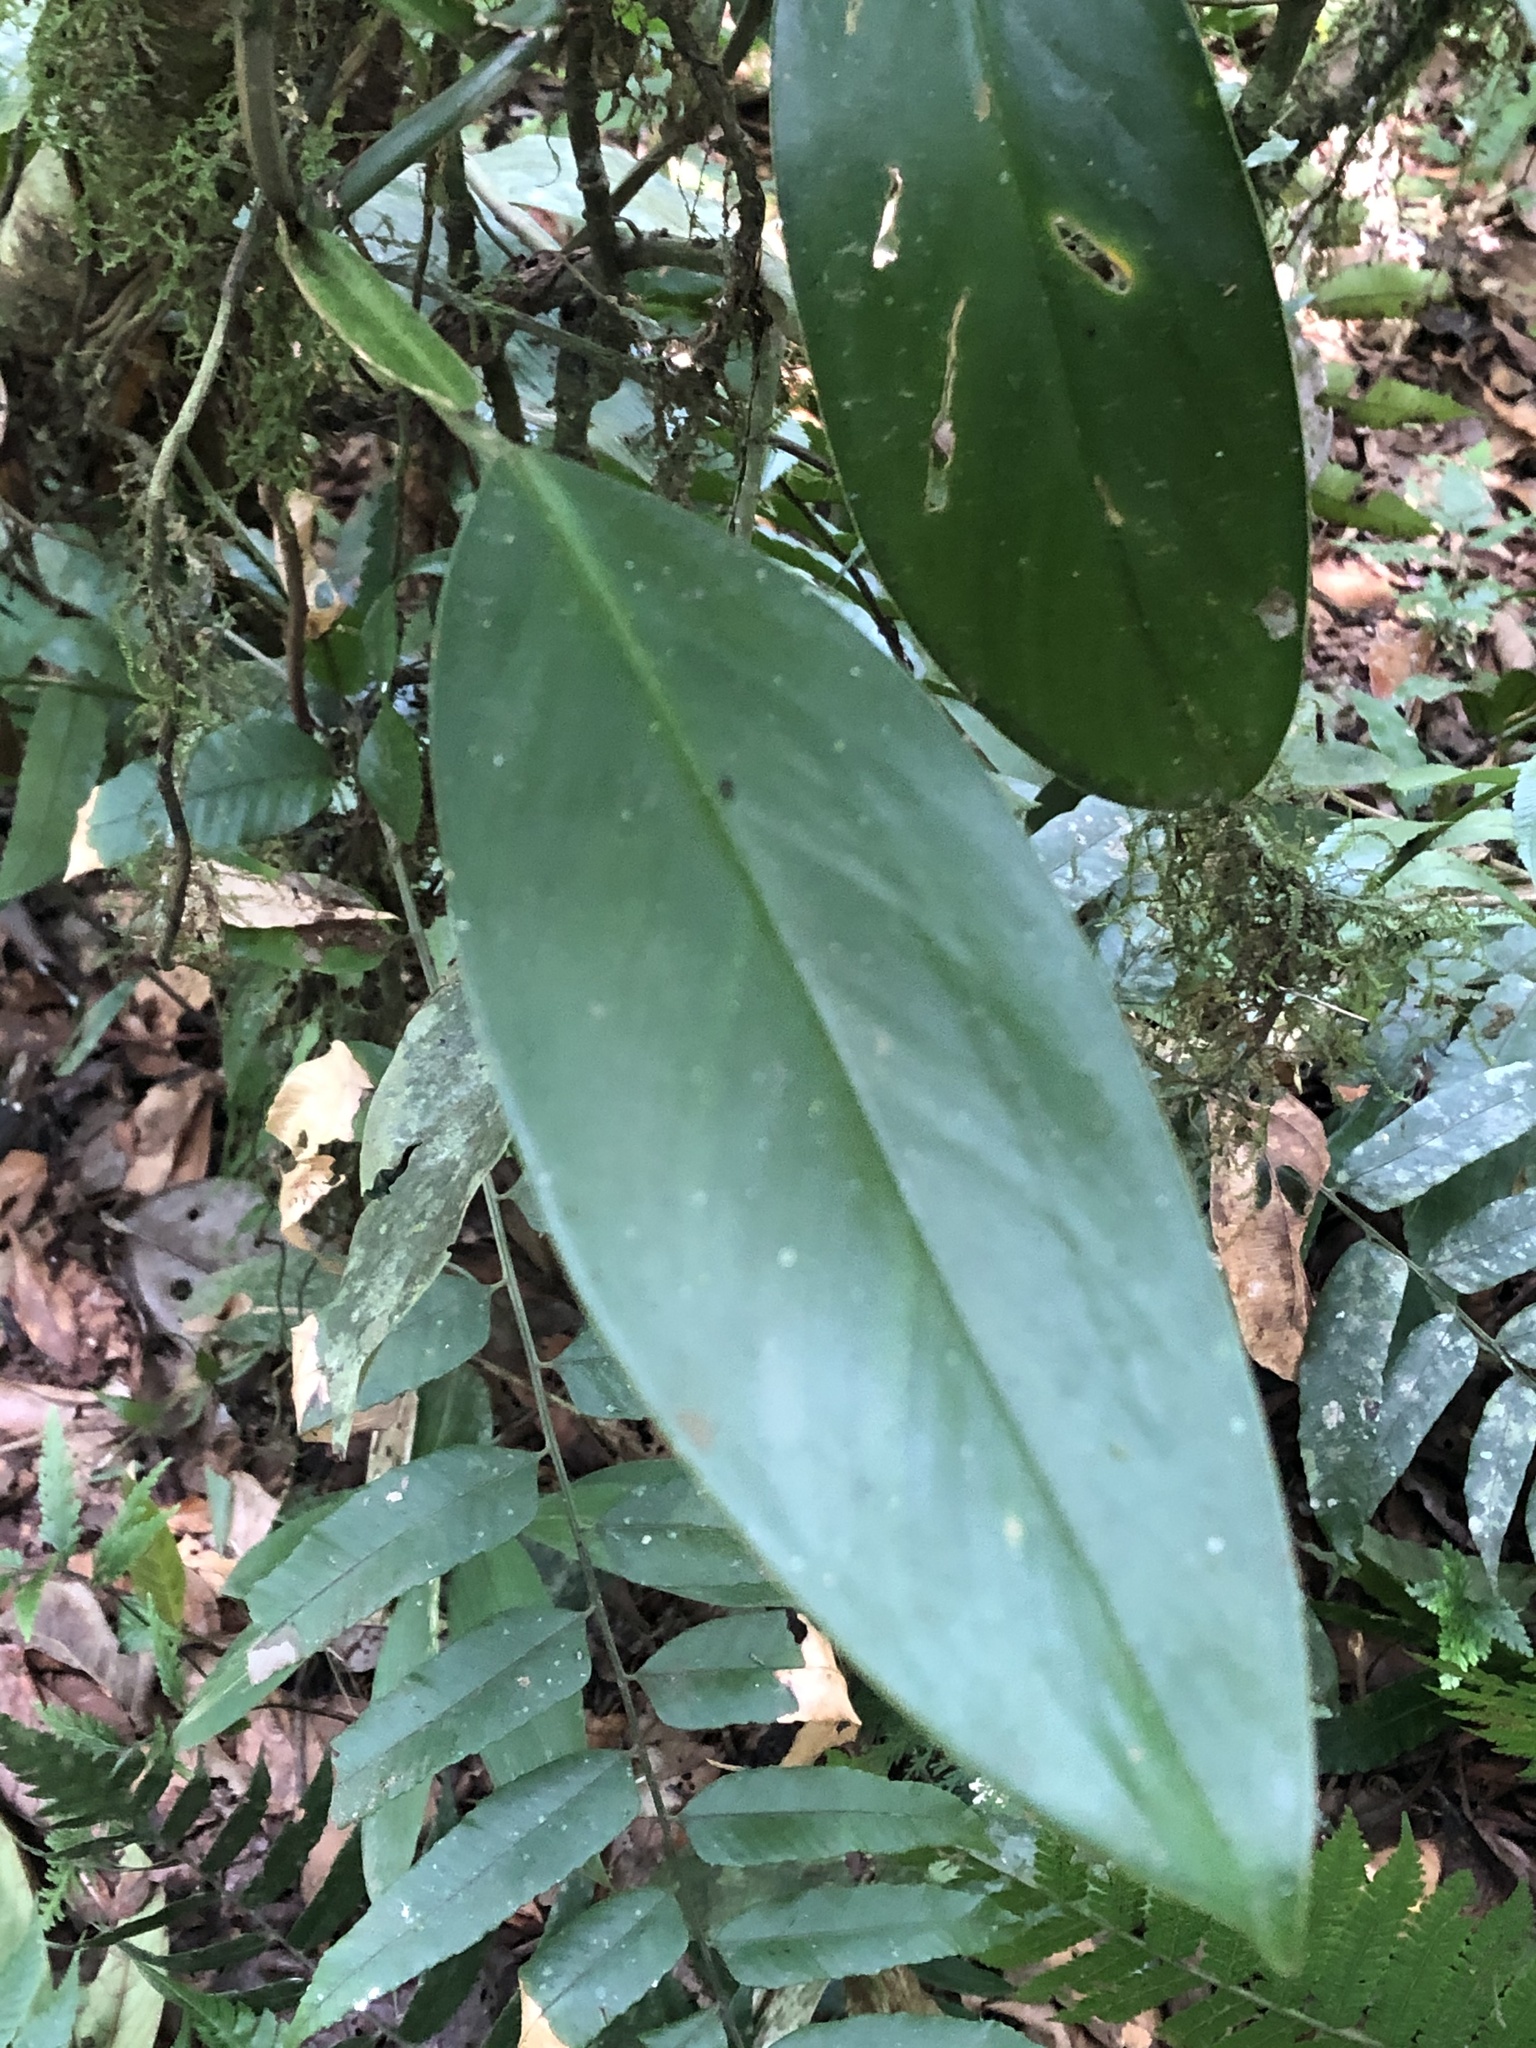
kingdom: Plantae
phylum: Tracheophyta
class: Liliopsida
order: Alismatales
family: Araceae
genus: Philodendron
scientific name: Philodendron acreanum
